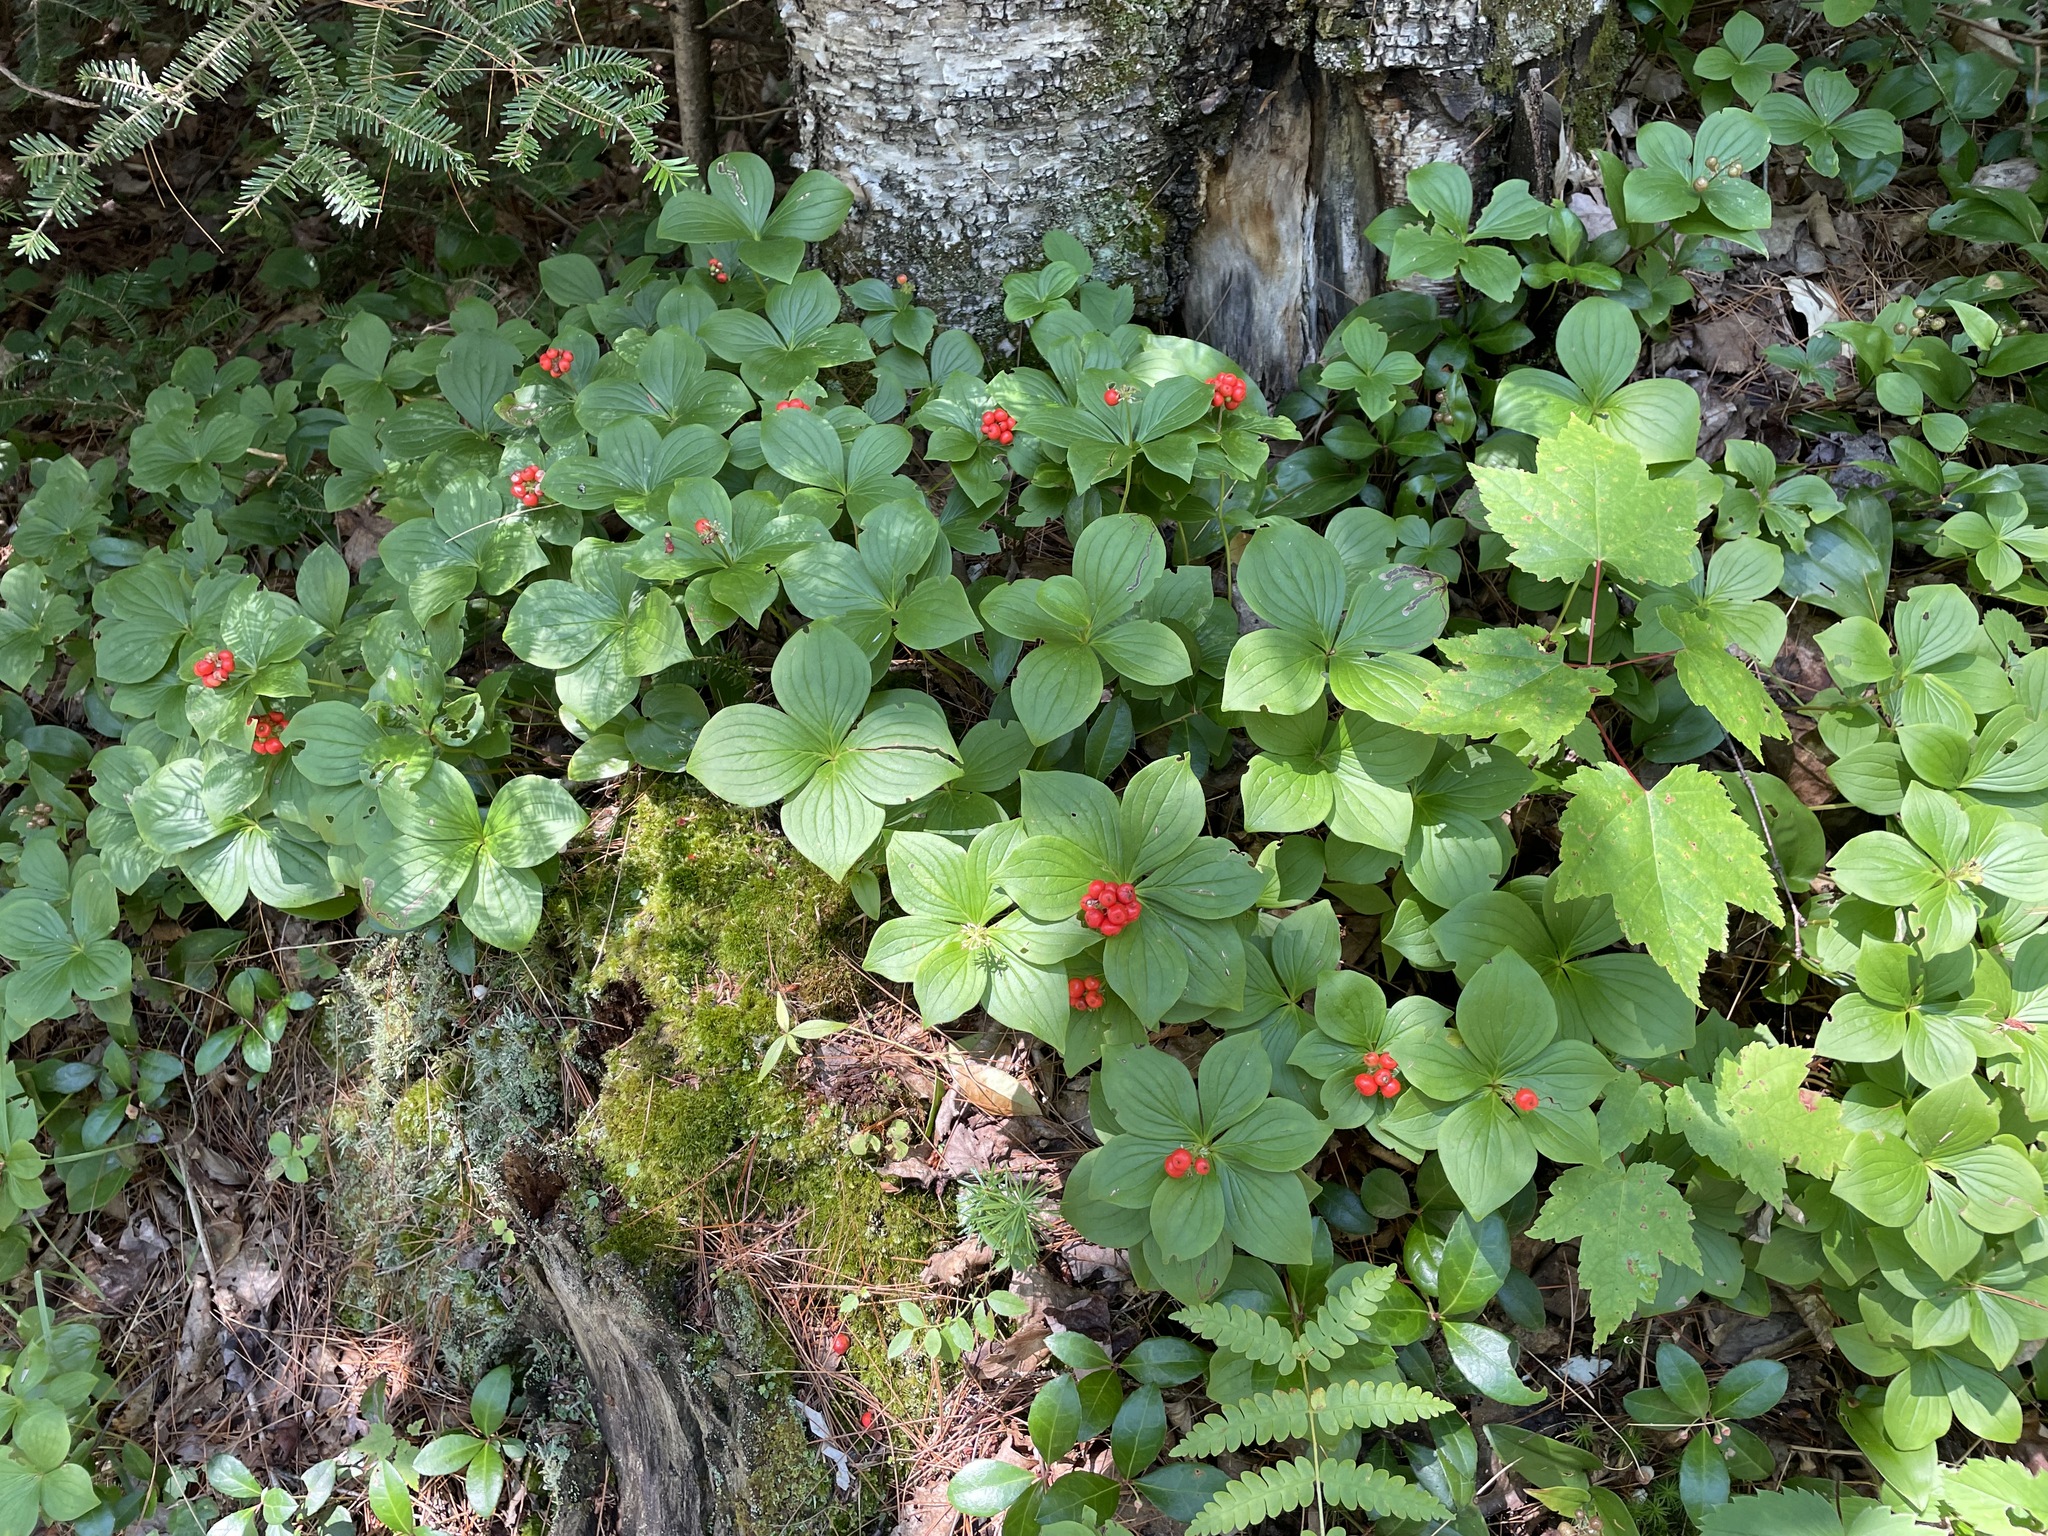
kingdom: Plantae
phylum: Tracheophyta
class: Magnoliopsida
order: Cornales
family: Cornaceae
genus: Cornus
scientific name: Cornus canadensis
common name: Creeping dogwood
